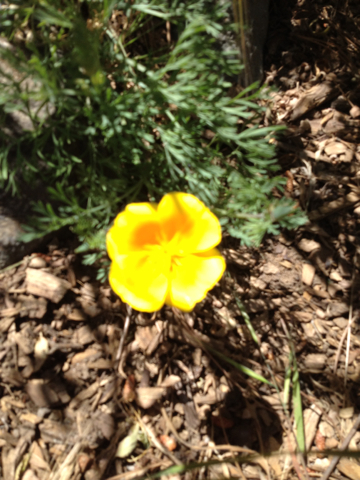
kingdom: Plantae
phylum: Tracheophyta
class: Magnoliopsida
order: Ranunculales
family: Papaveraceae
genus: Eschscholzia
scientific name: Eschscholzia californica
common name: California poppy
